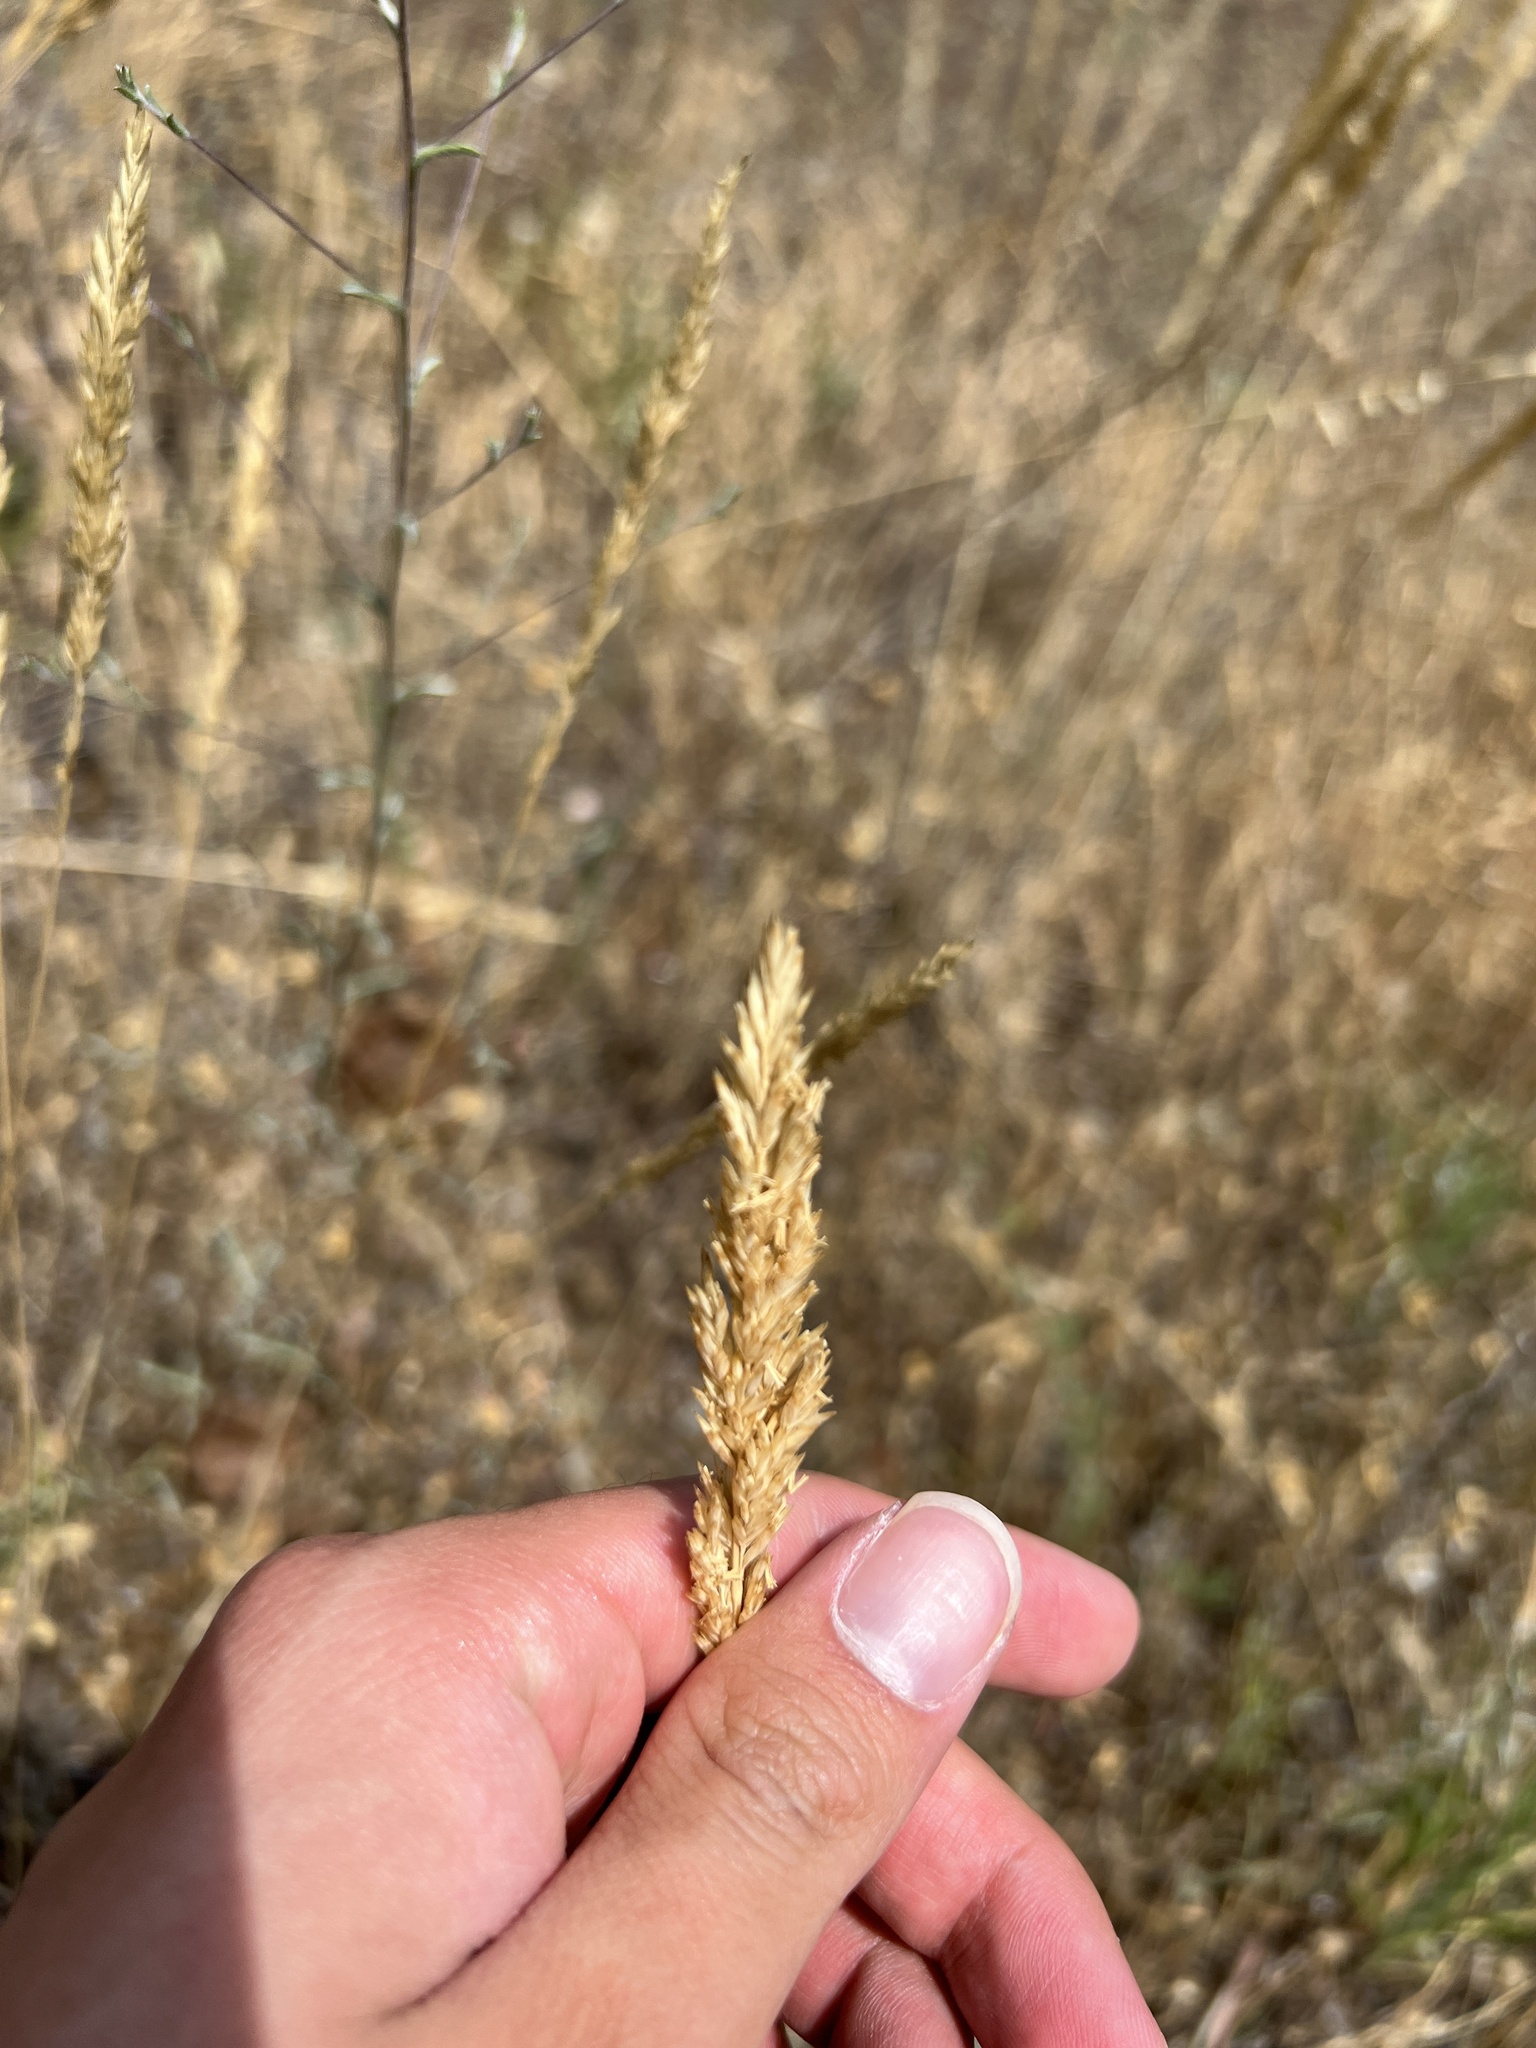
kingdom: Plantae
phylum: Tracheophyta
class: Liliopsida
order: Poales
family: Poaceae
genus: Koeleria
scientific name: Koeleria macrantha
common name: Crested hair-grass
